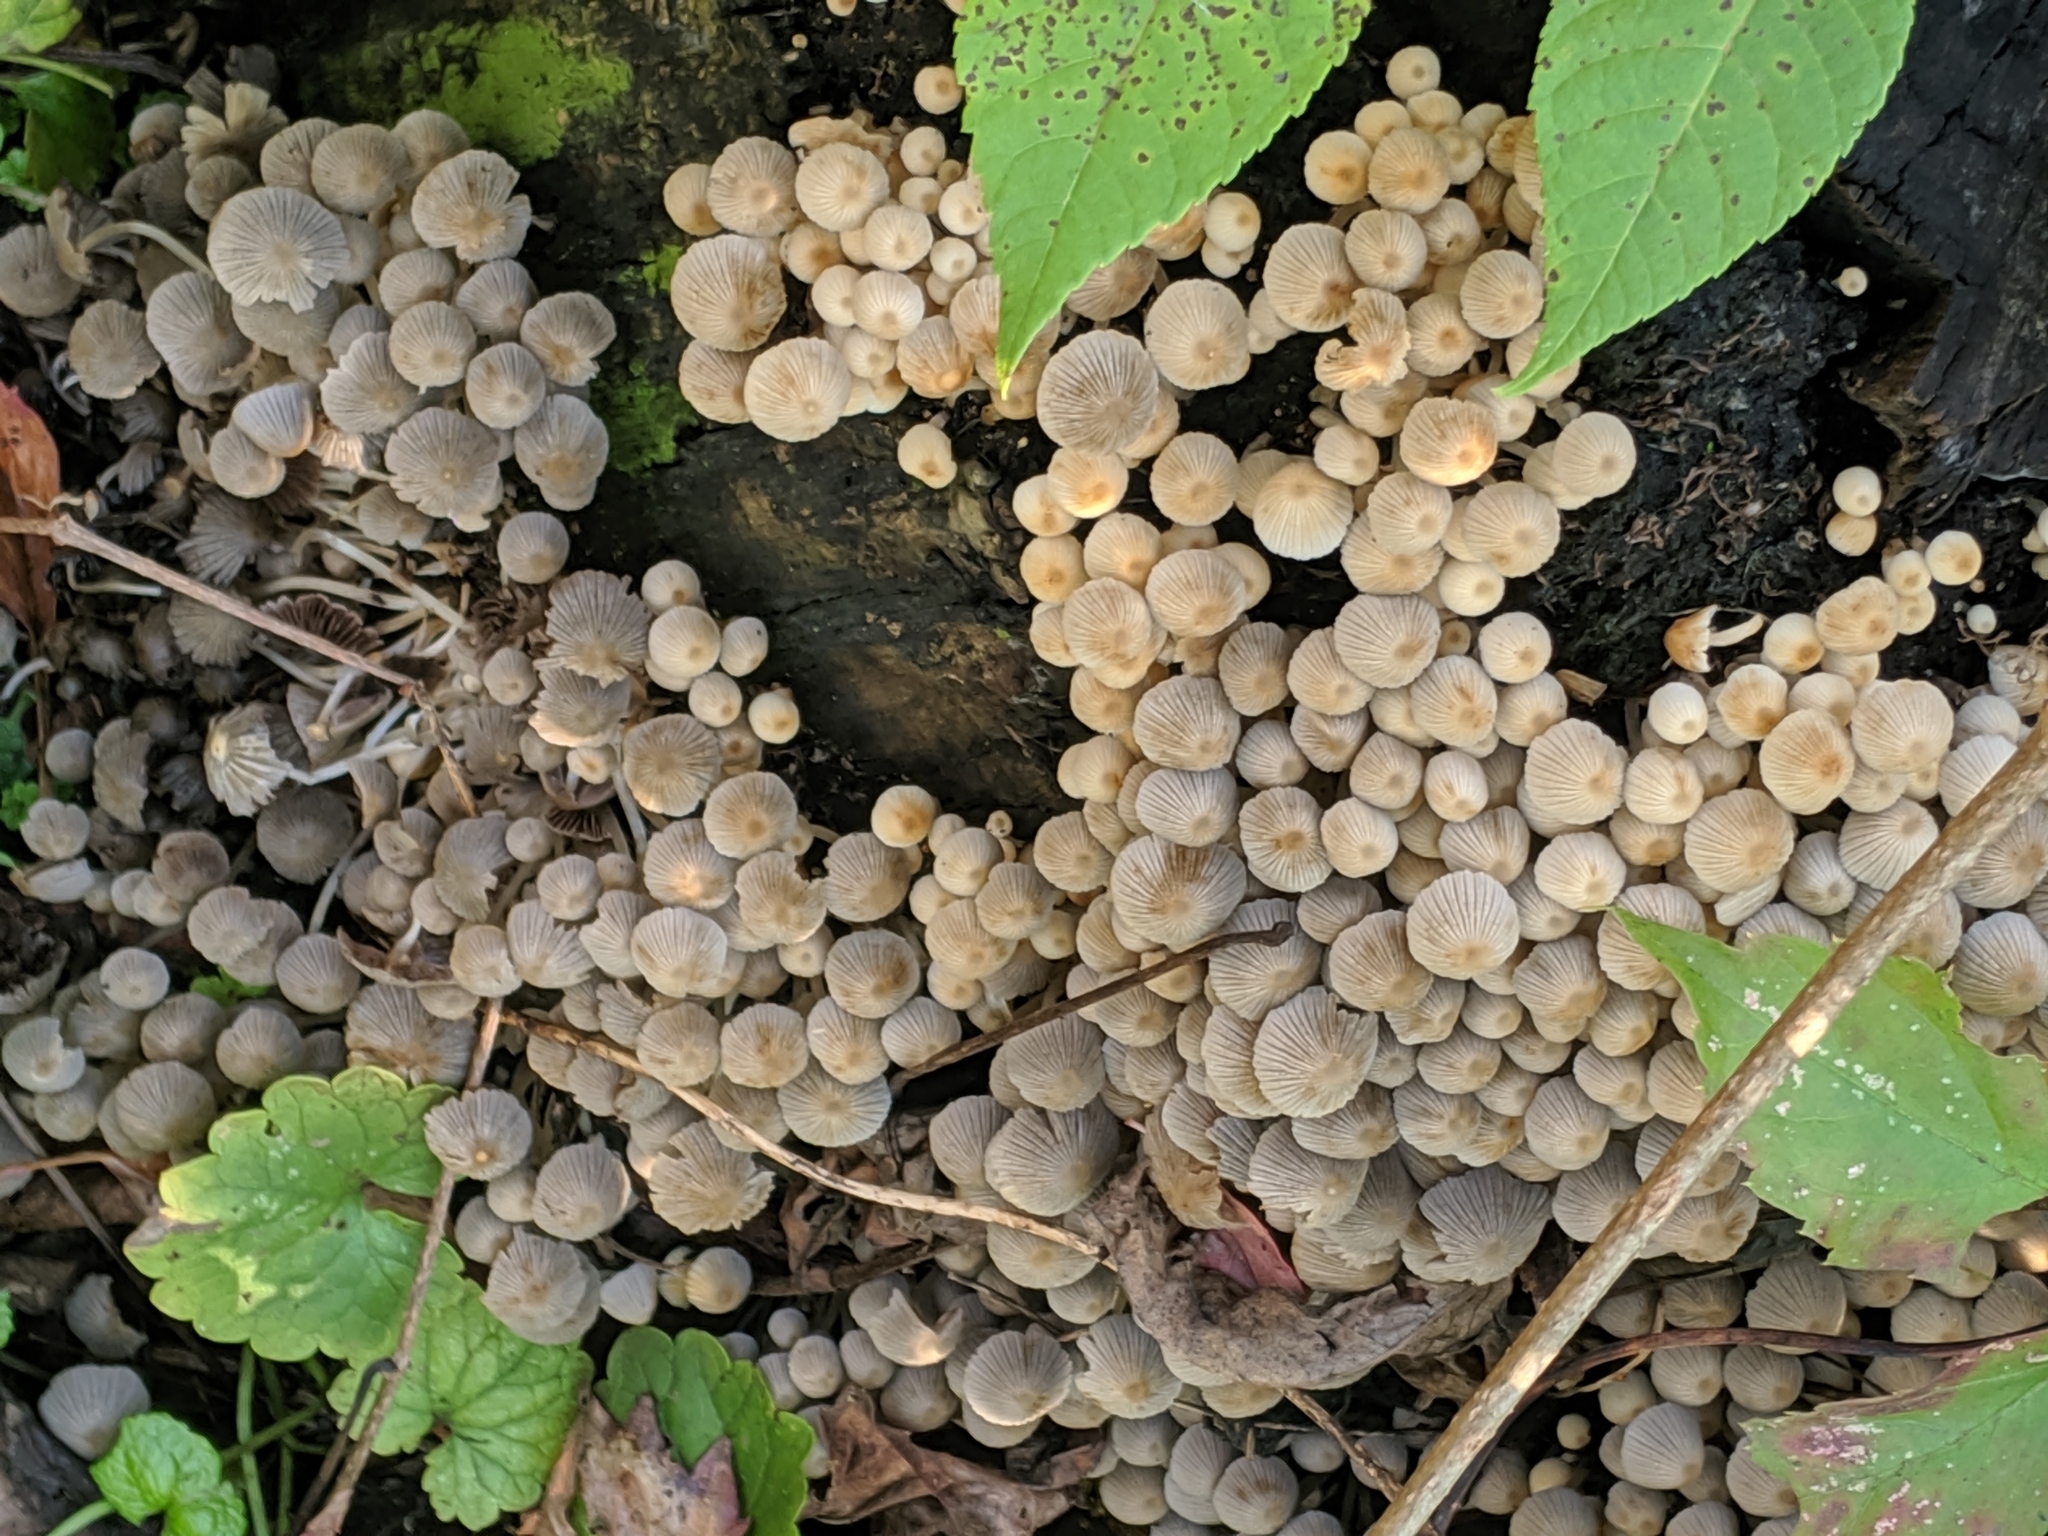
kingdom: Fungi
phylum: Basidiomycota
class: Agaricomycetes
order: Agaricales
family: Psathyrellaceae
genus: Coprinellus
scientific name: Coprinellus disseminatus
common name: Fairies' bonnets
